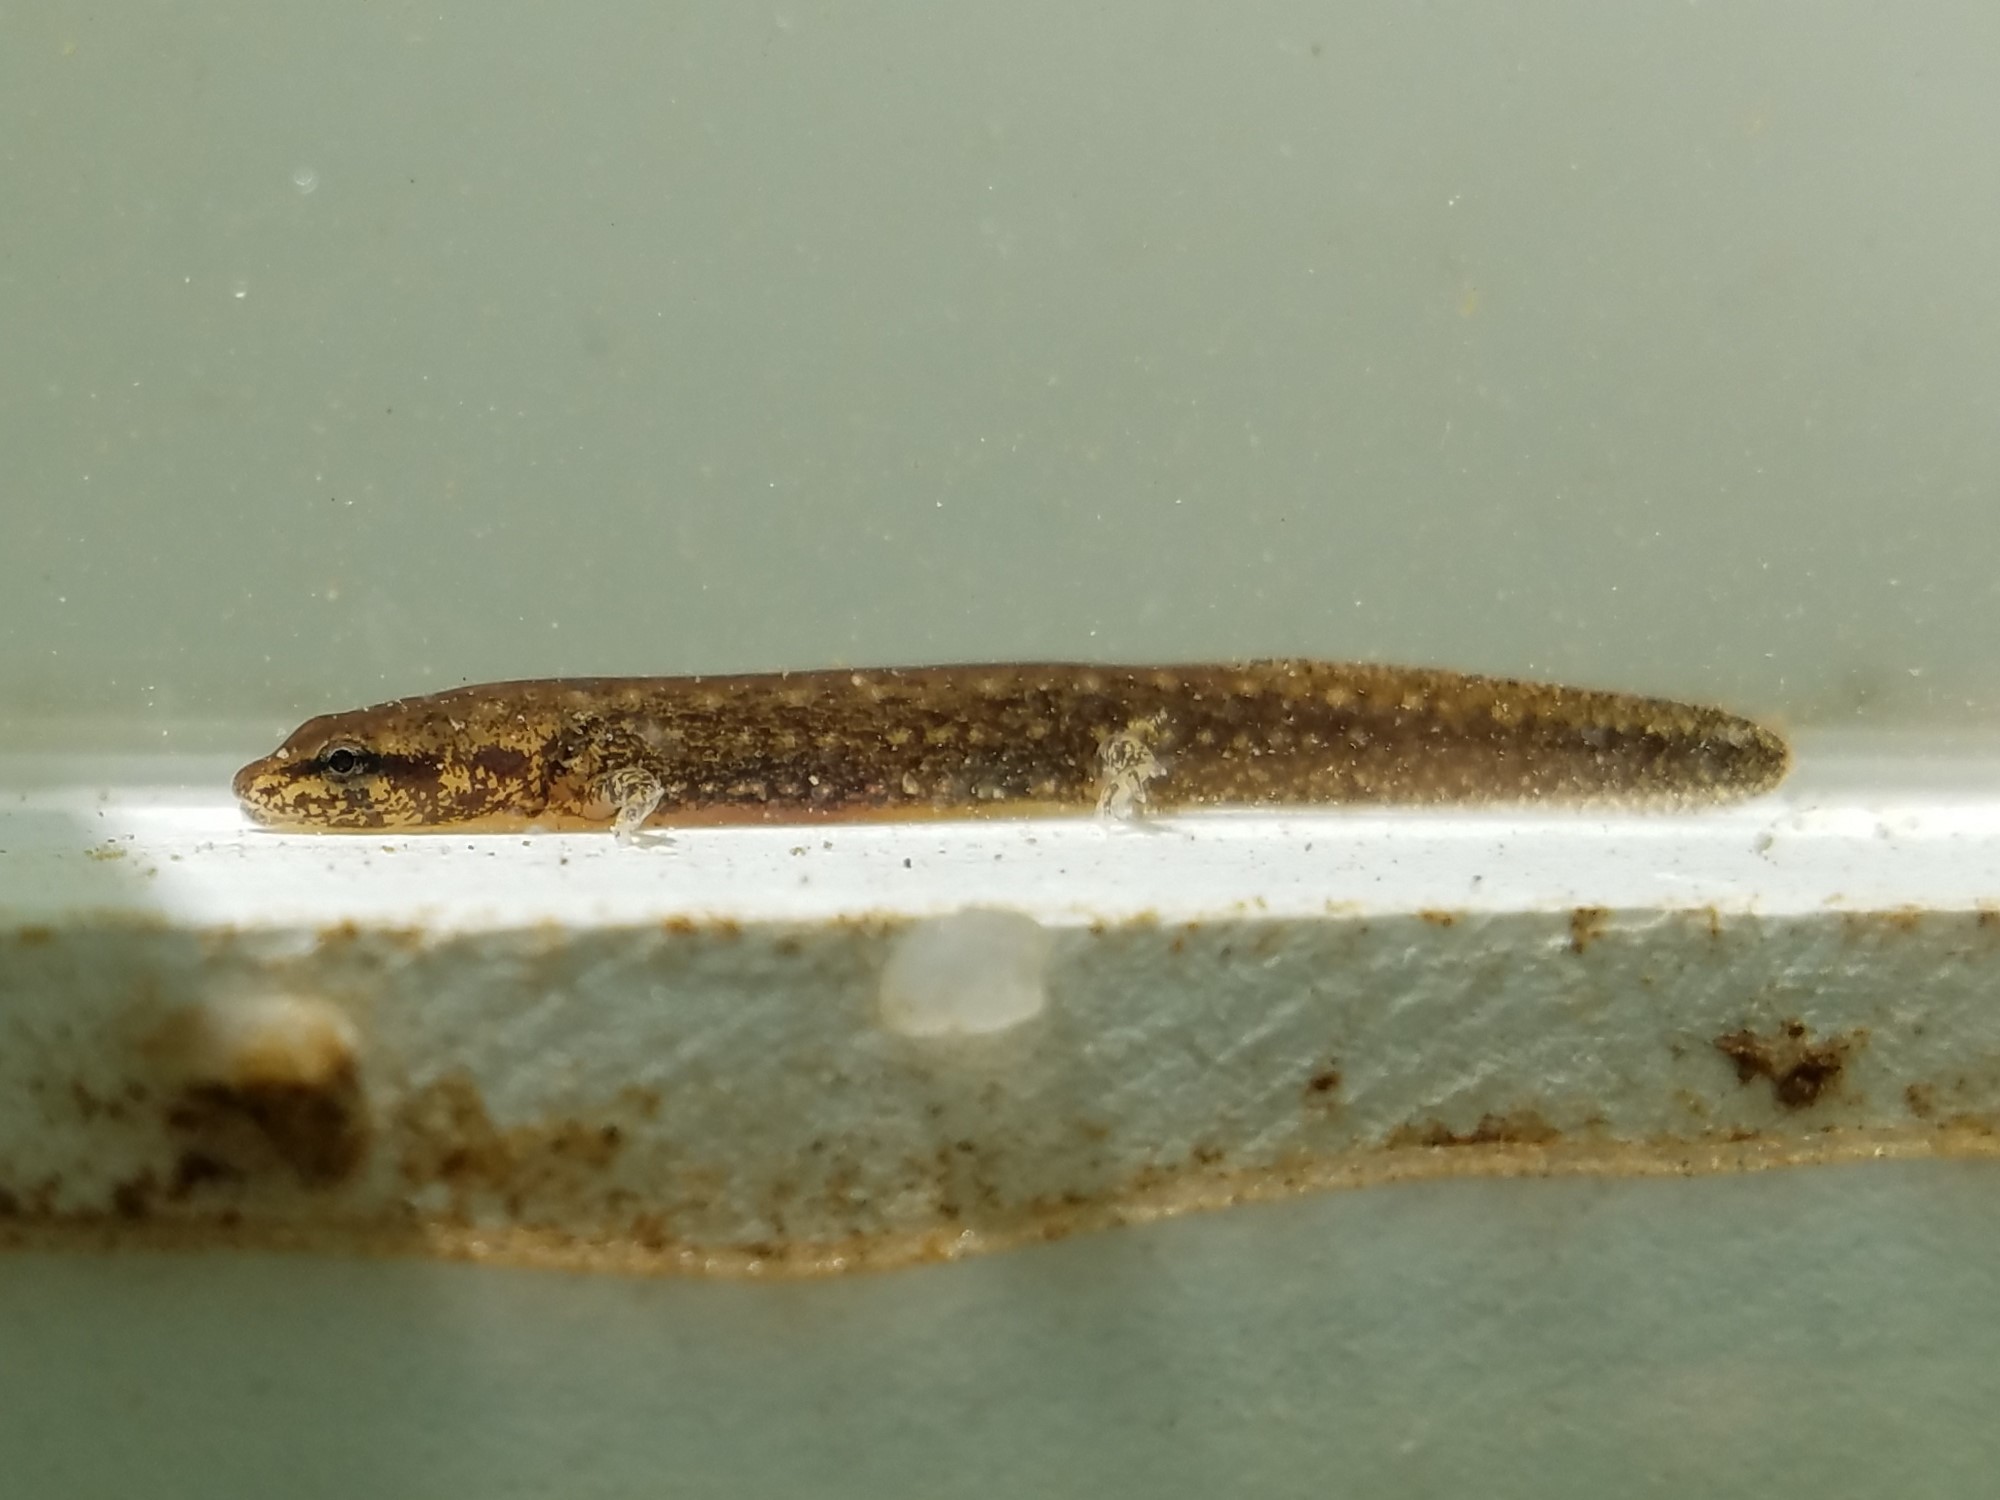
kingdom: Animalia
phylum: Chordata
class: Amphibia
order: Caudata
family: Plethodontidae
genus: Eurycea
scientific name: Eurycea
